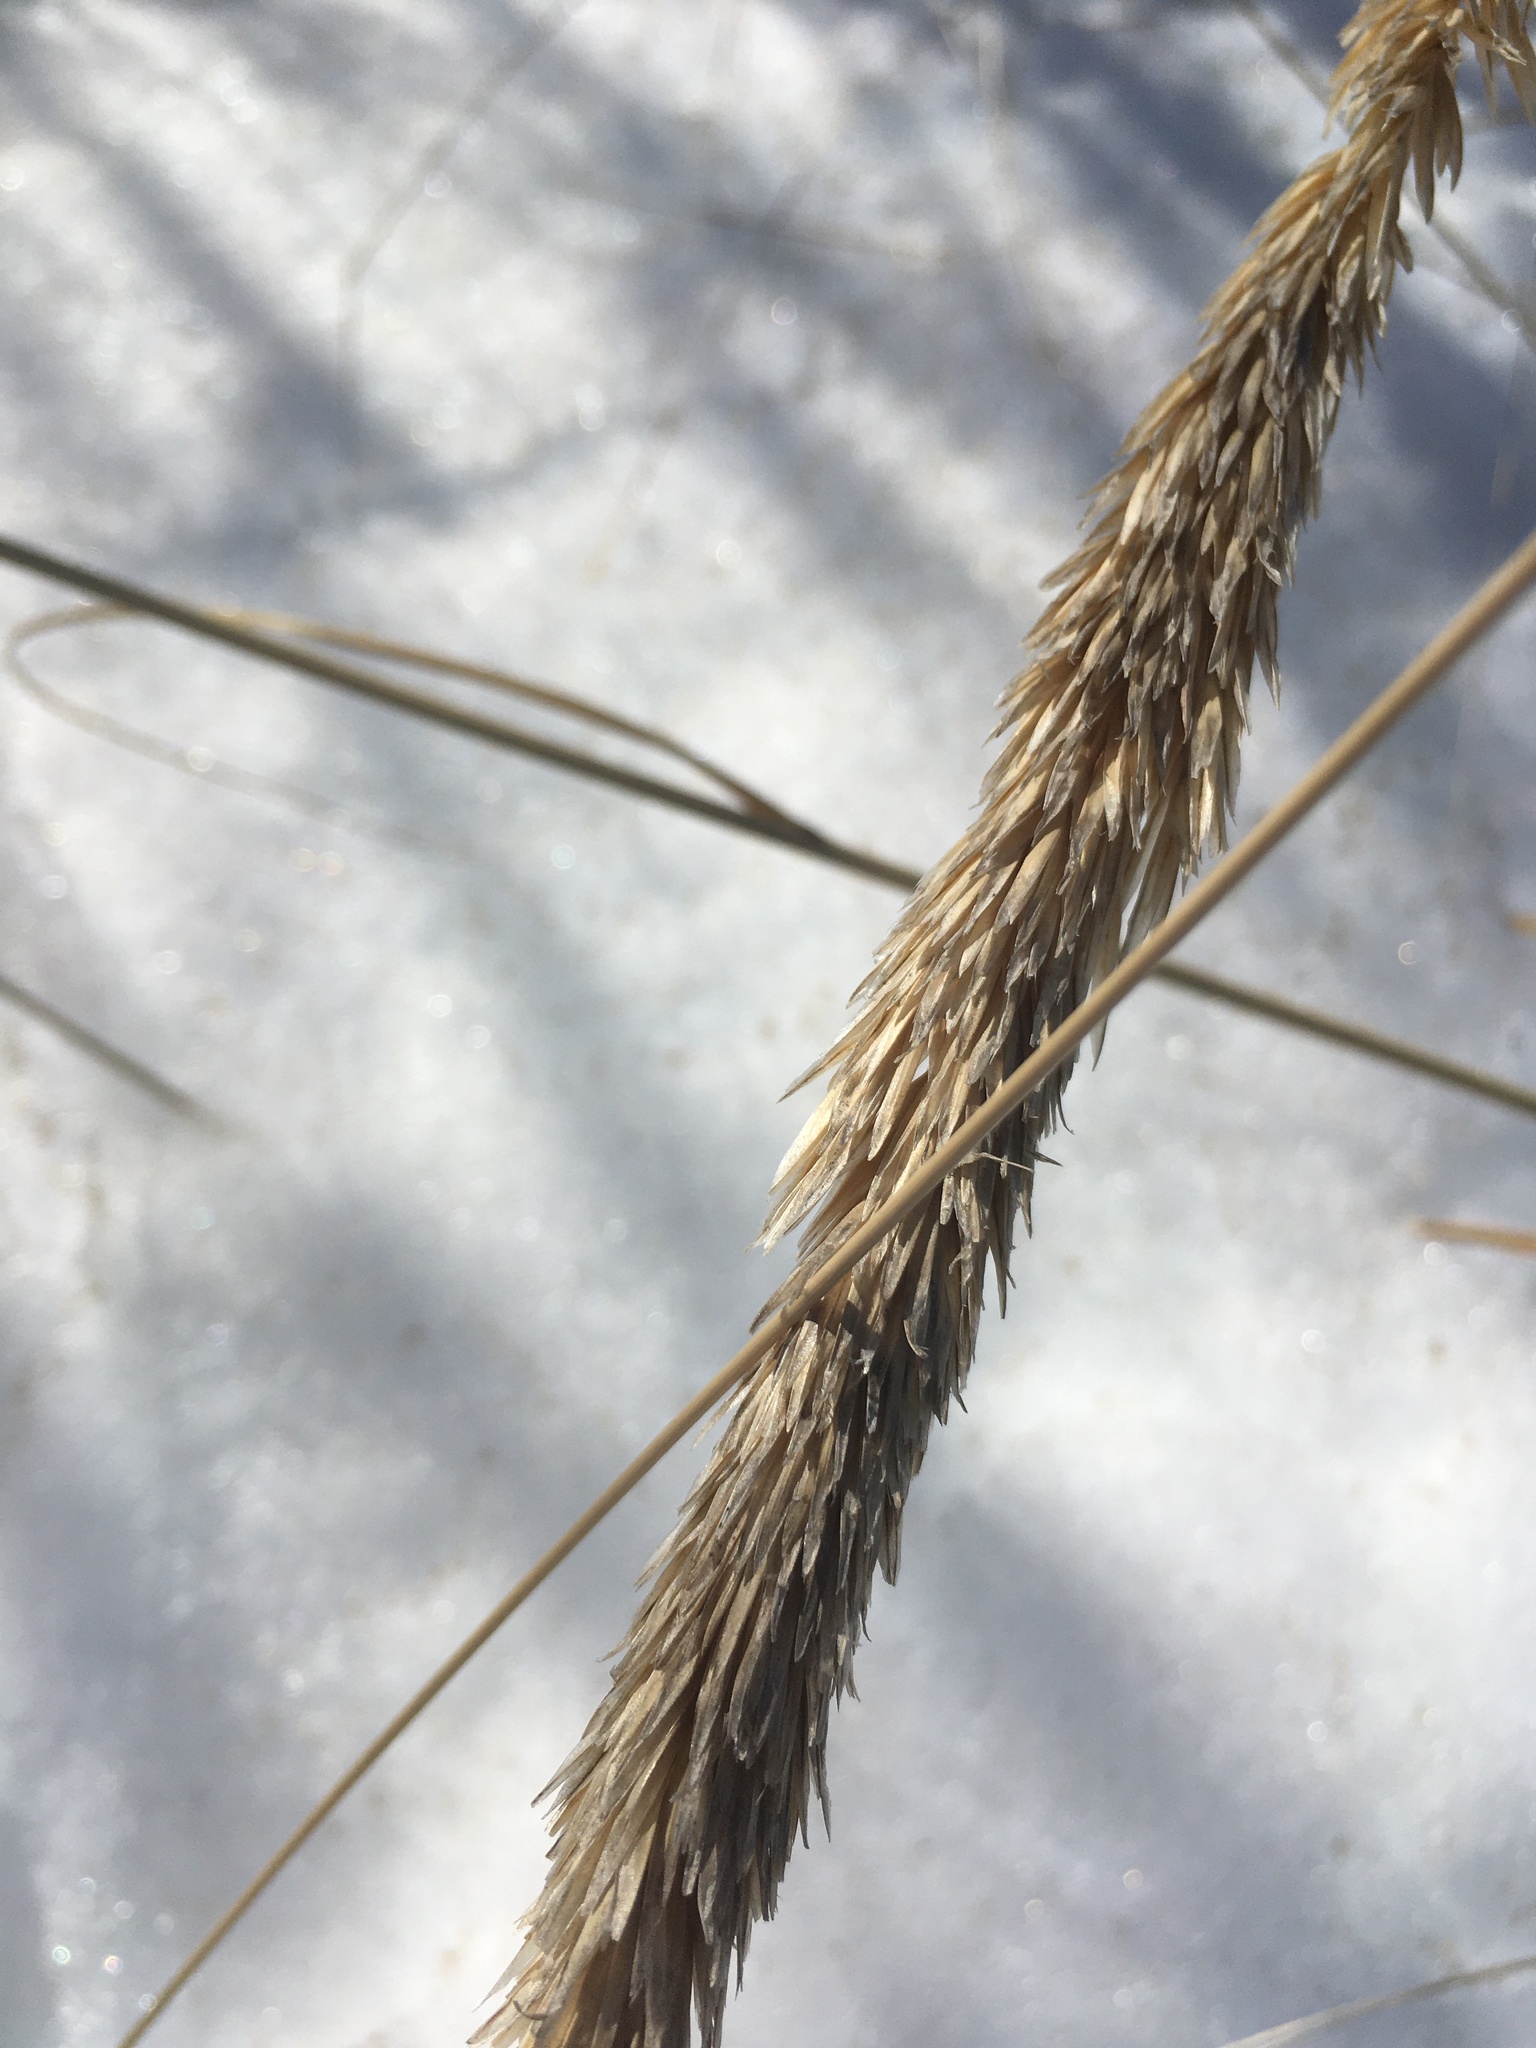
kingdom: Plantae
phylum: Tracheophyta
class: Liliopsida
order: Poales
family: Poaceae
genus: Calamagrostis
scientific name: Calamagrostis breviligulata
